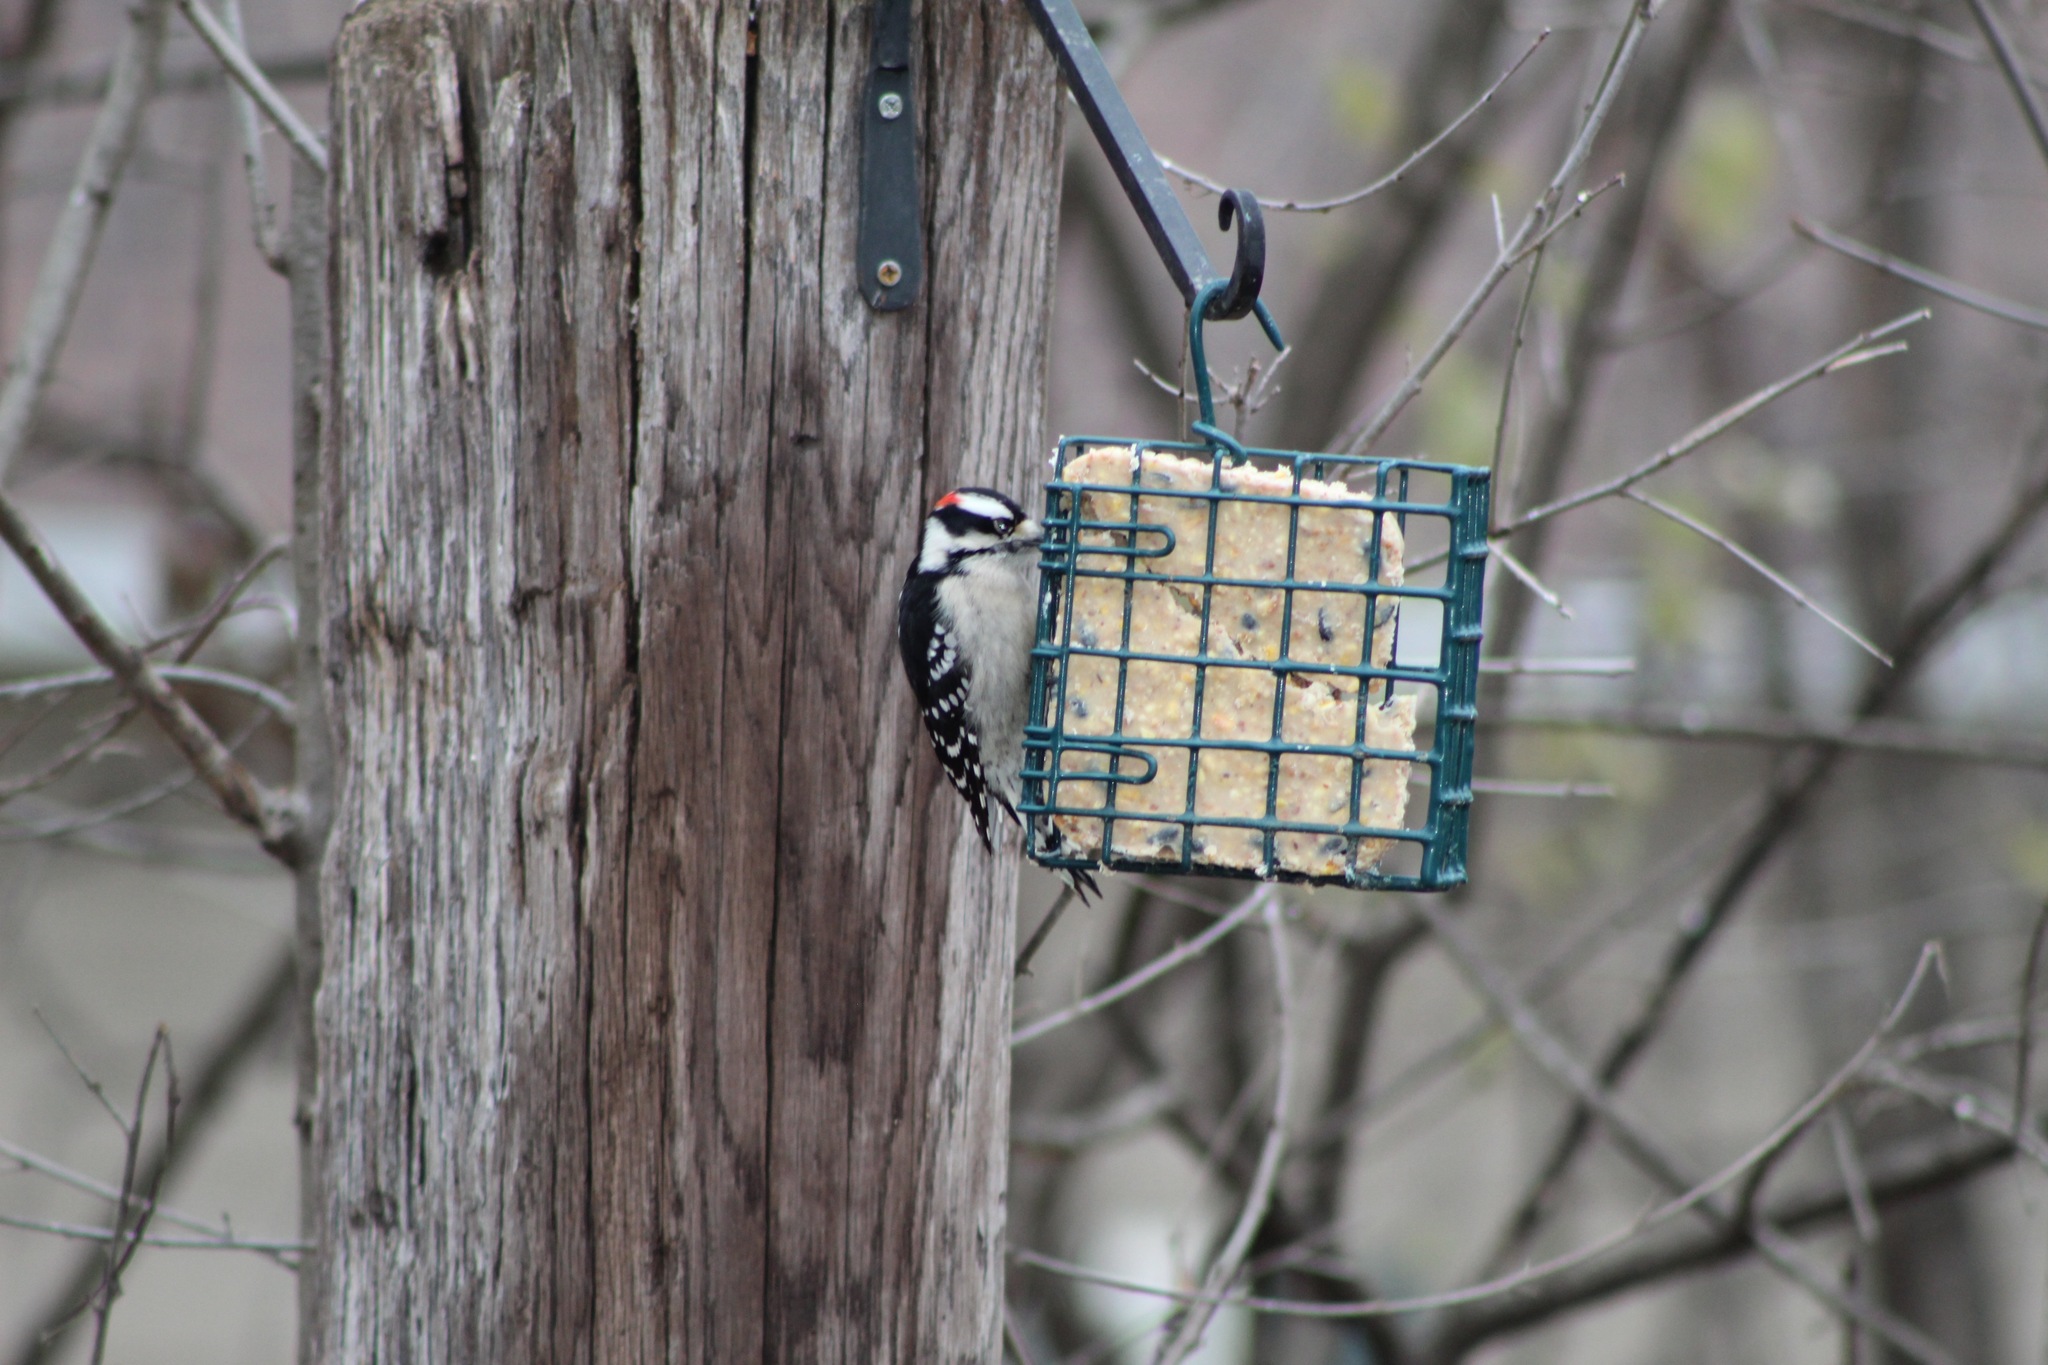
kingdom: Animalia
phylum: Chordata
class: Aves
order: Piciformes
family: Picidae
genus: Dryobates
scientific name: Dryobates pubescens
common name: Downy woodpecker
